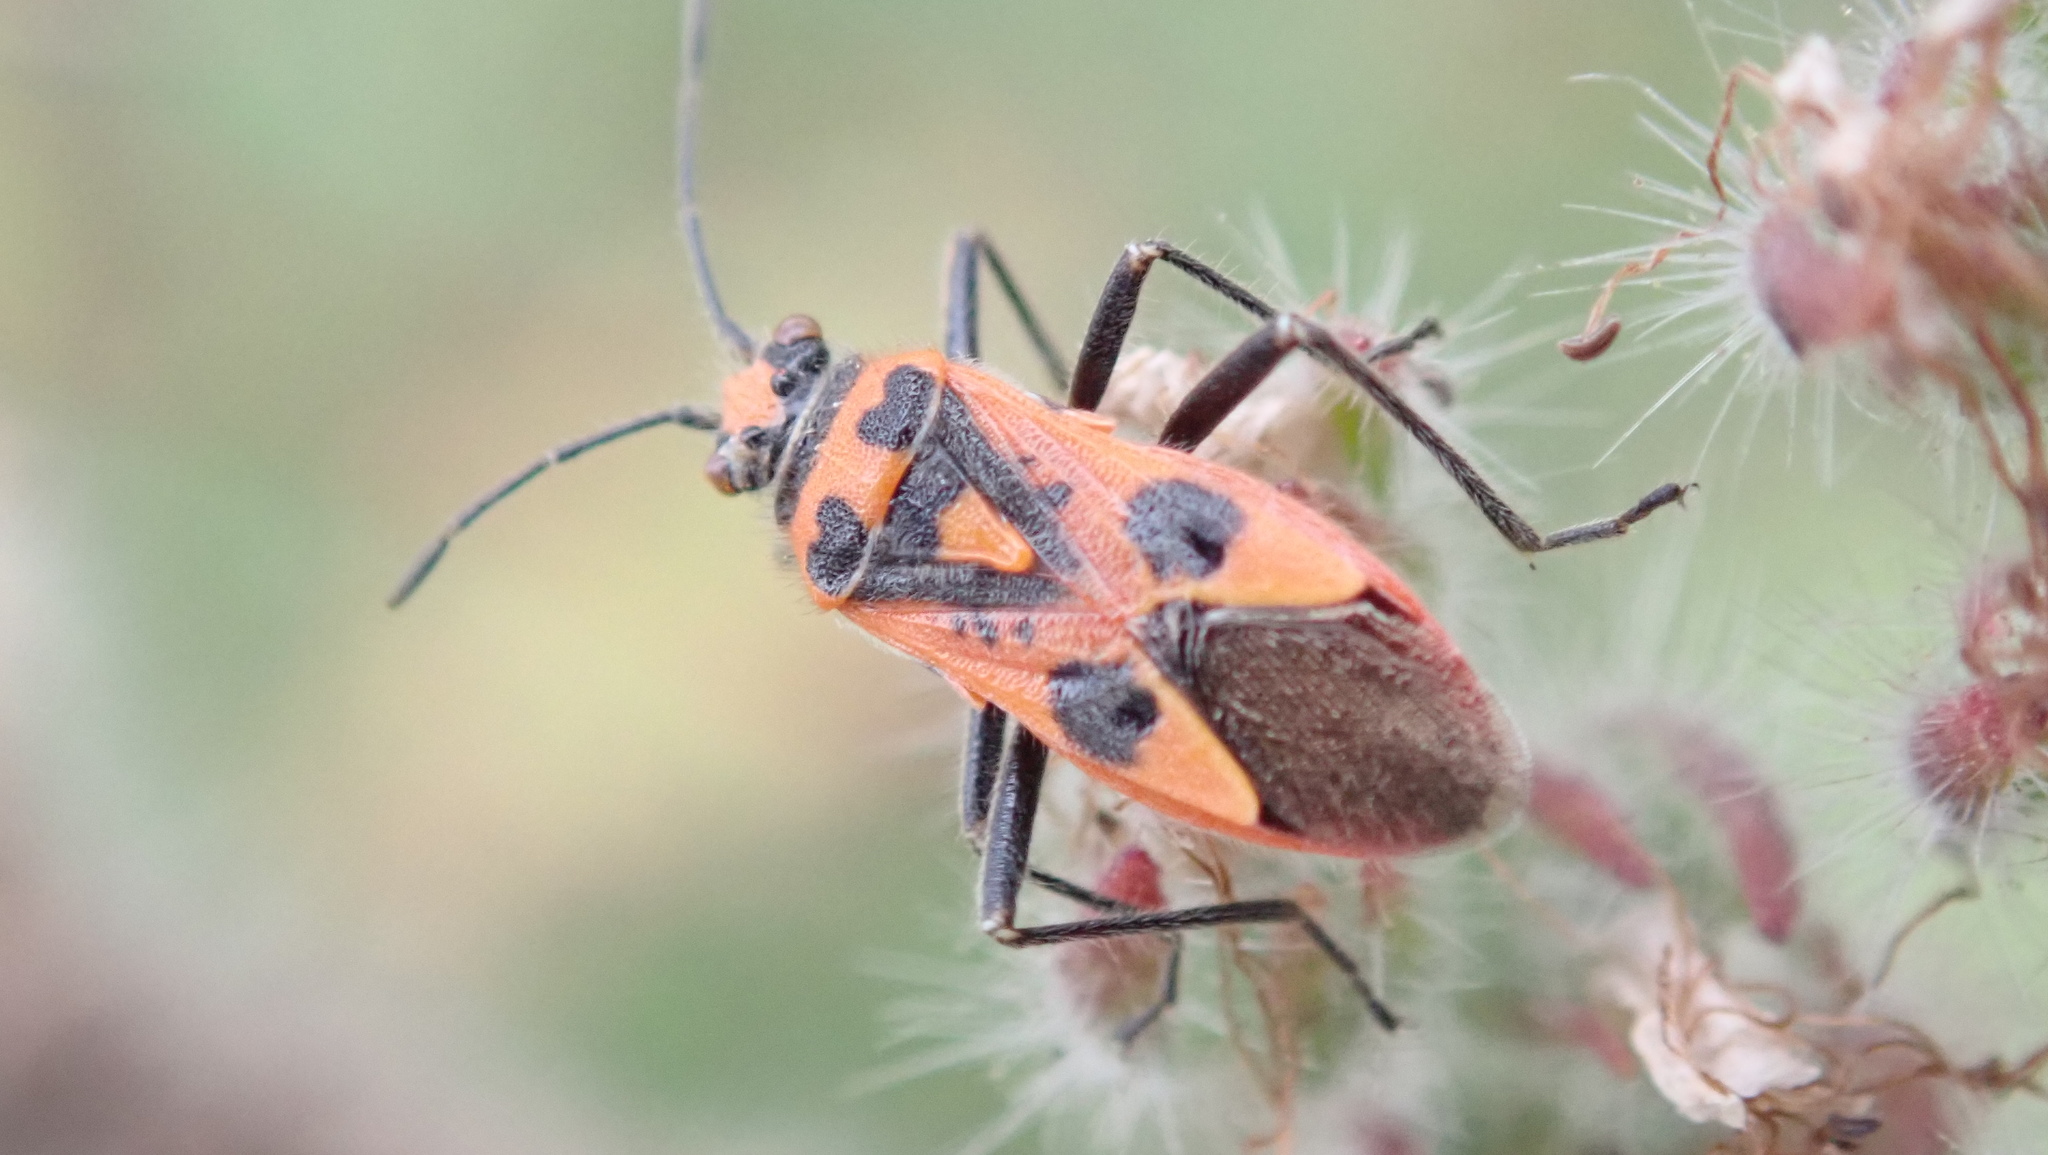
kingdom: Animalia
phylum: Arthropoda
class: Insecta
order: Hemiptera
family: Rhopalidae
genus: Corizus
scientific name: Corizus hyoscyami
